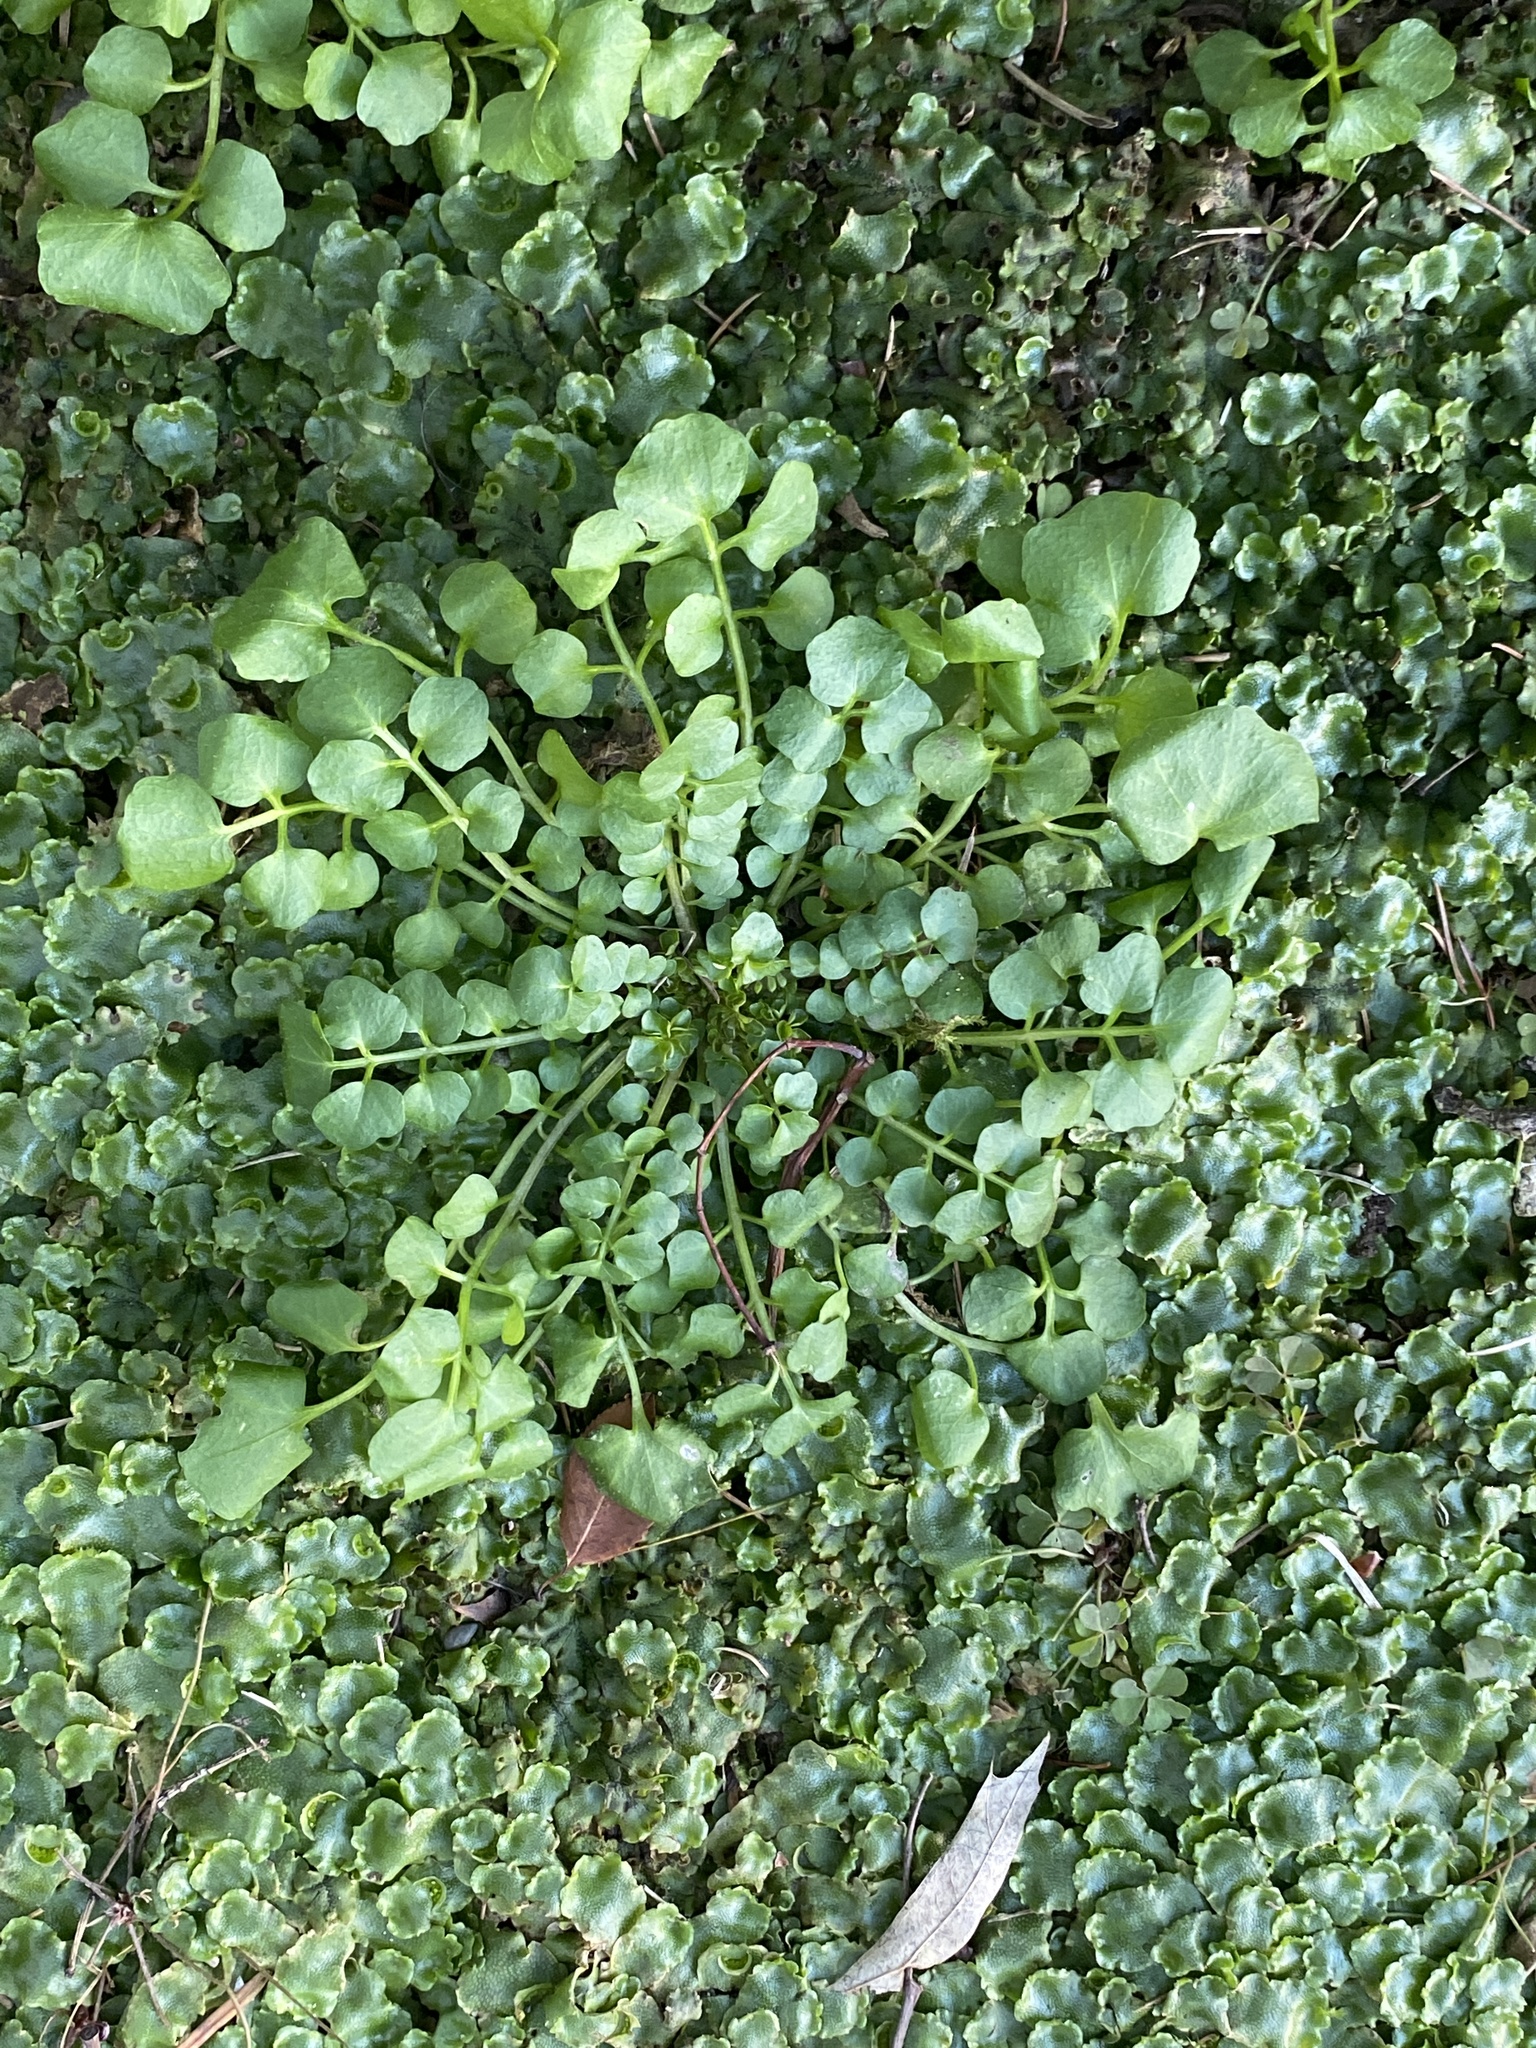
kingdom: Plantae
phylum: Tracheophyta
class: Magnoliopsida
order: Brassicales
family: Brassicaceae
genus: Cardamine
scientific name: Cardamine hirsuta
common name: Hairy bittercress
